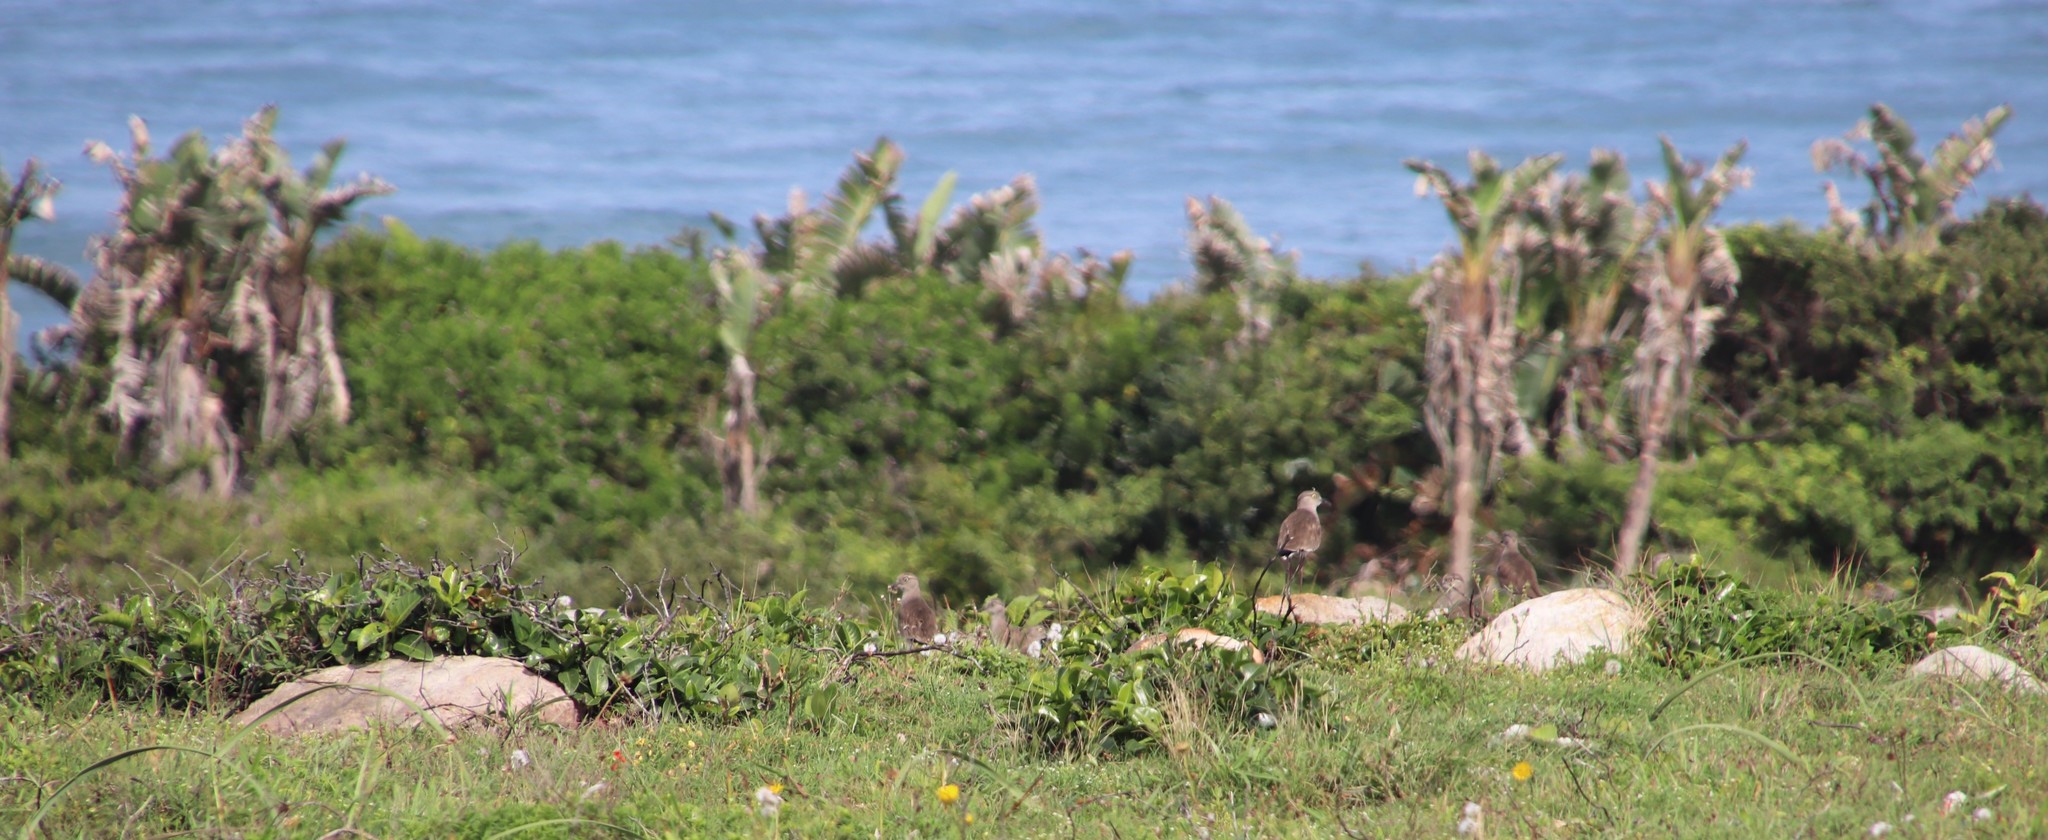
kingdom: Plantae
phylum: Tracheophyta
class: Liliopsida
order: Zingiberales
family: Strelitziaceae
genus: Strelitzia
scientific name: Strelitzia nicolai
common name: Bird-of-paradise tree
